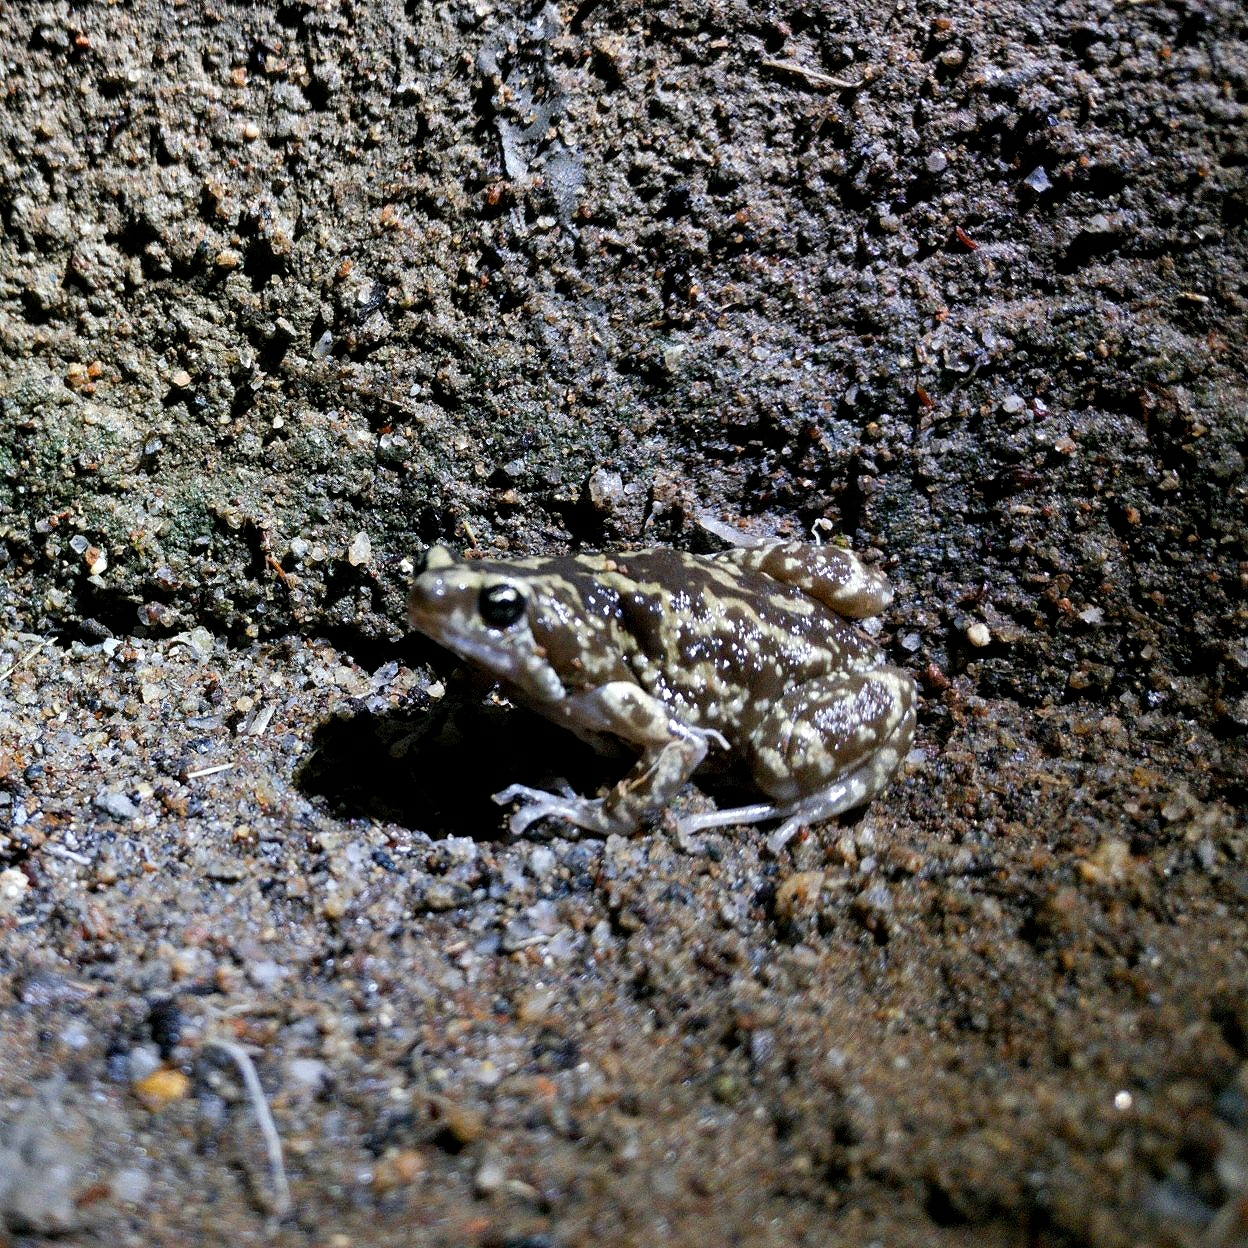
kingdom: Animalia
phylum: Chordata
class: Amphibia
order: Anura
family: Microhylidae
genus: Uperodon
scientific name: Uperodon variegatus
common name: Eluru dot frog
